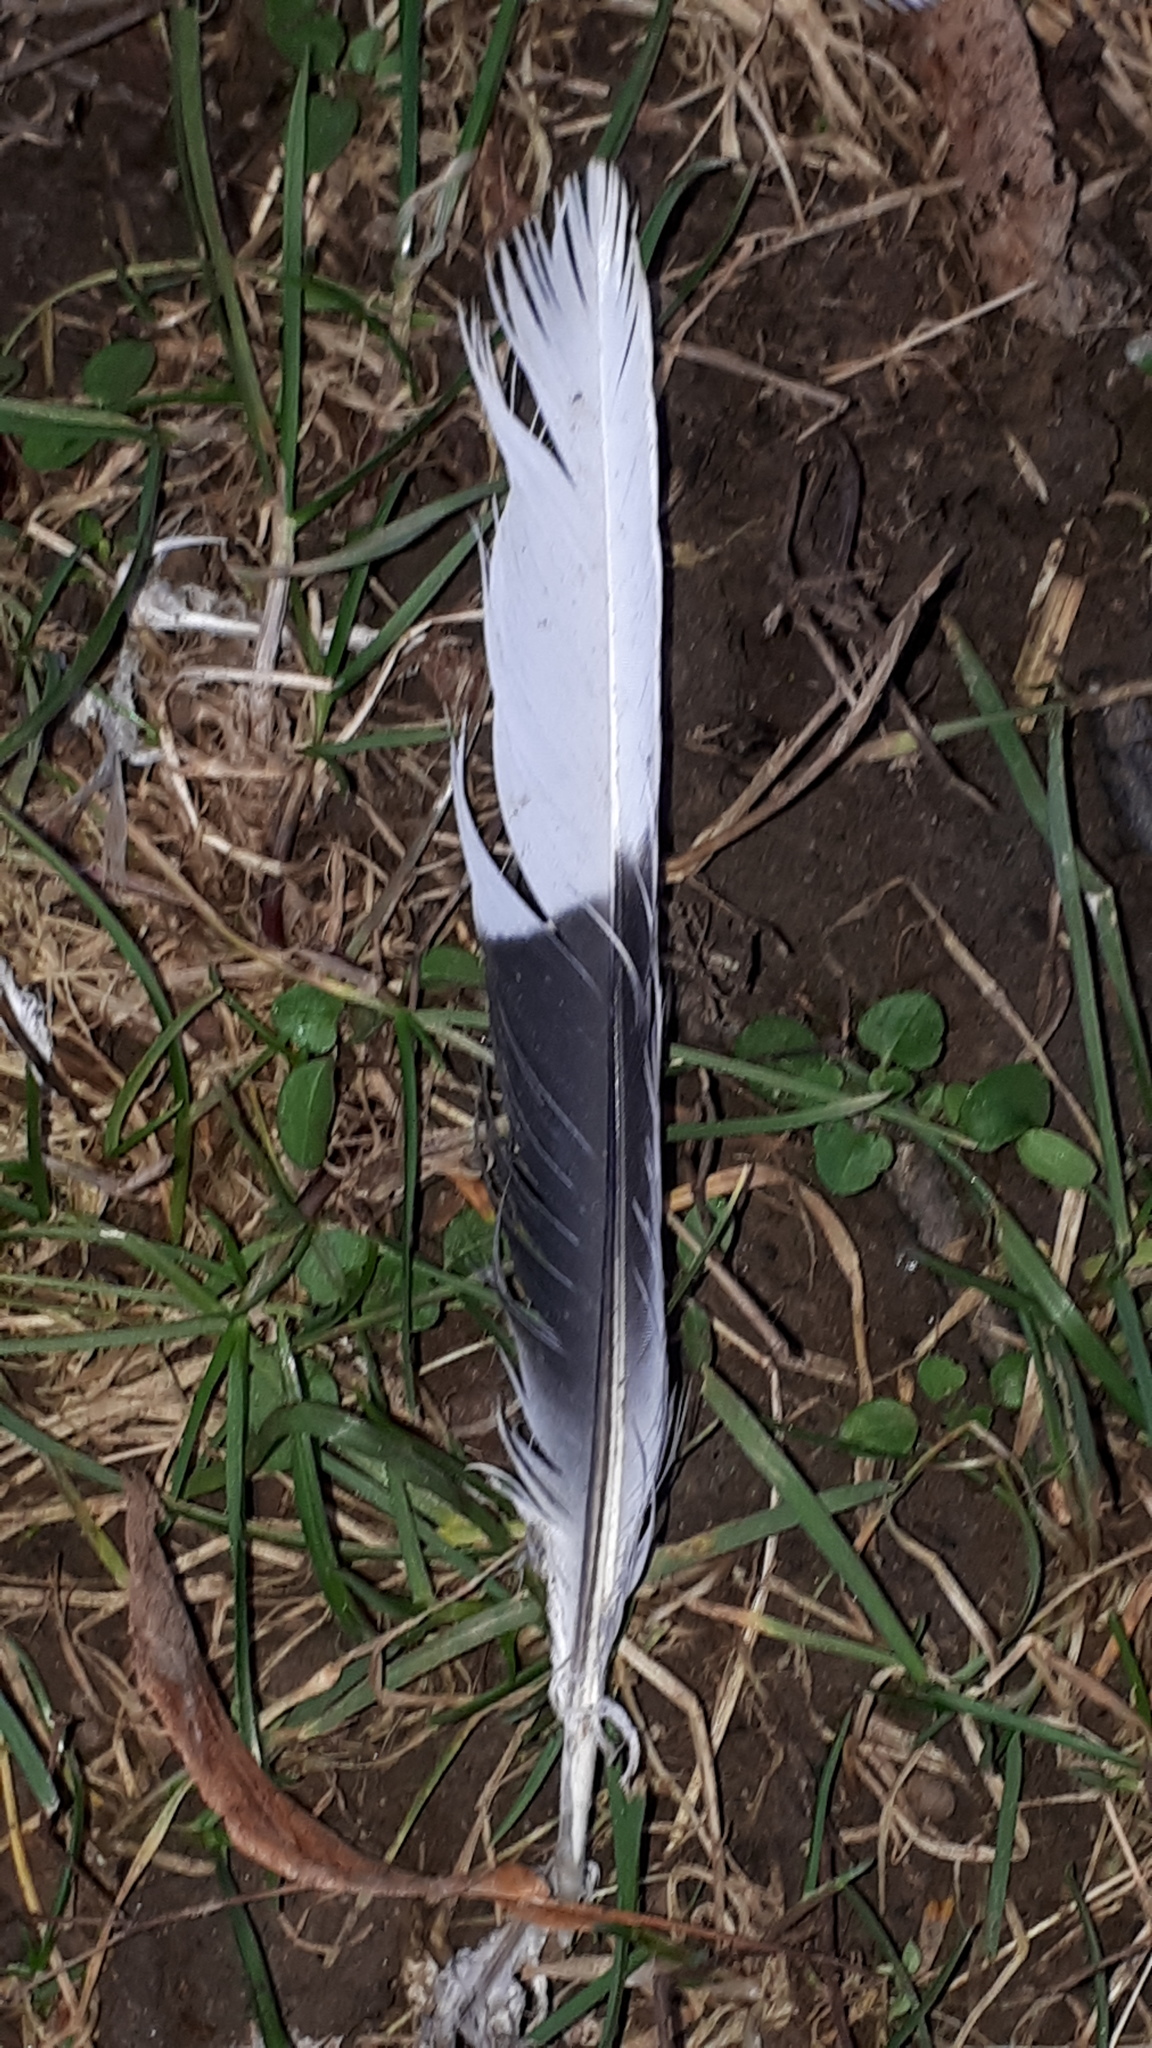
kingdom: Animalia
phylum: Chordata
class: Aves
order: Columbiformes
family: Columbidae
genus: Streptopelia
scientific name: Streptopelia decaocto
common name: Eurasian collared dove
